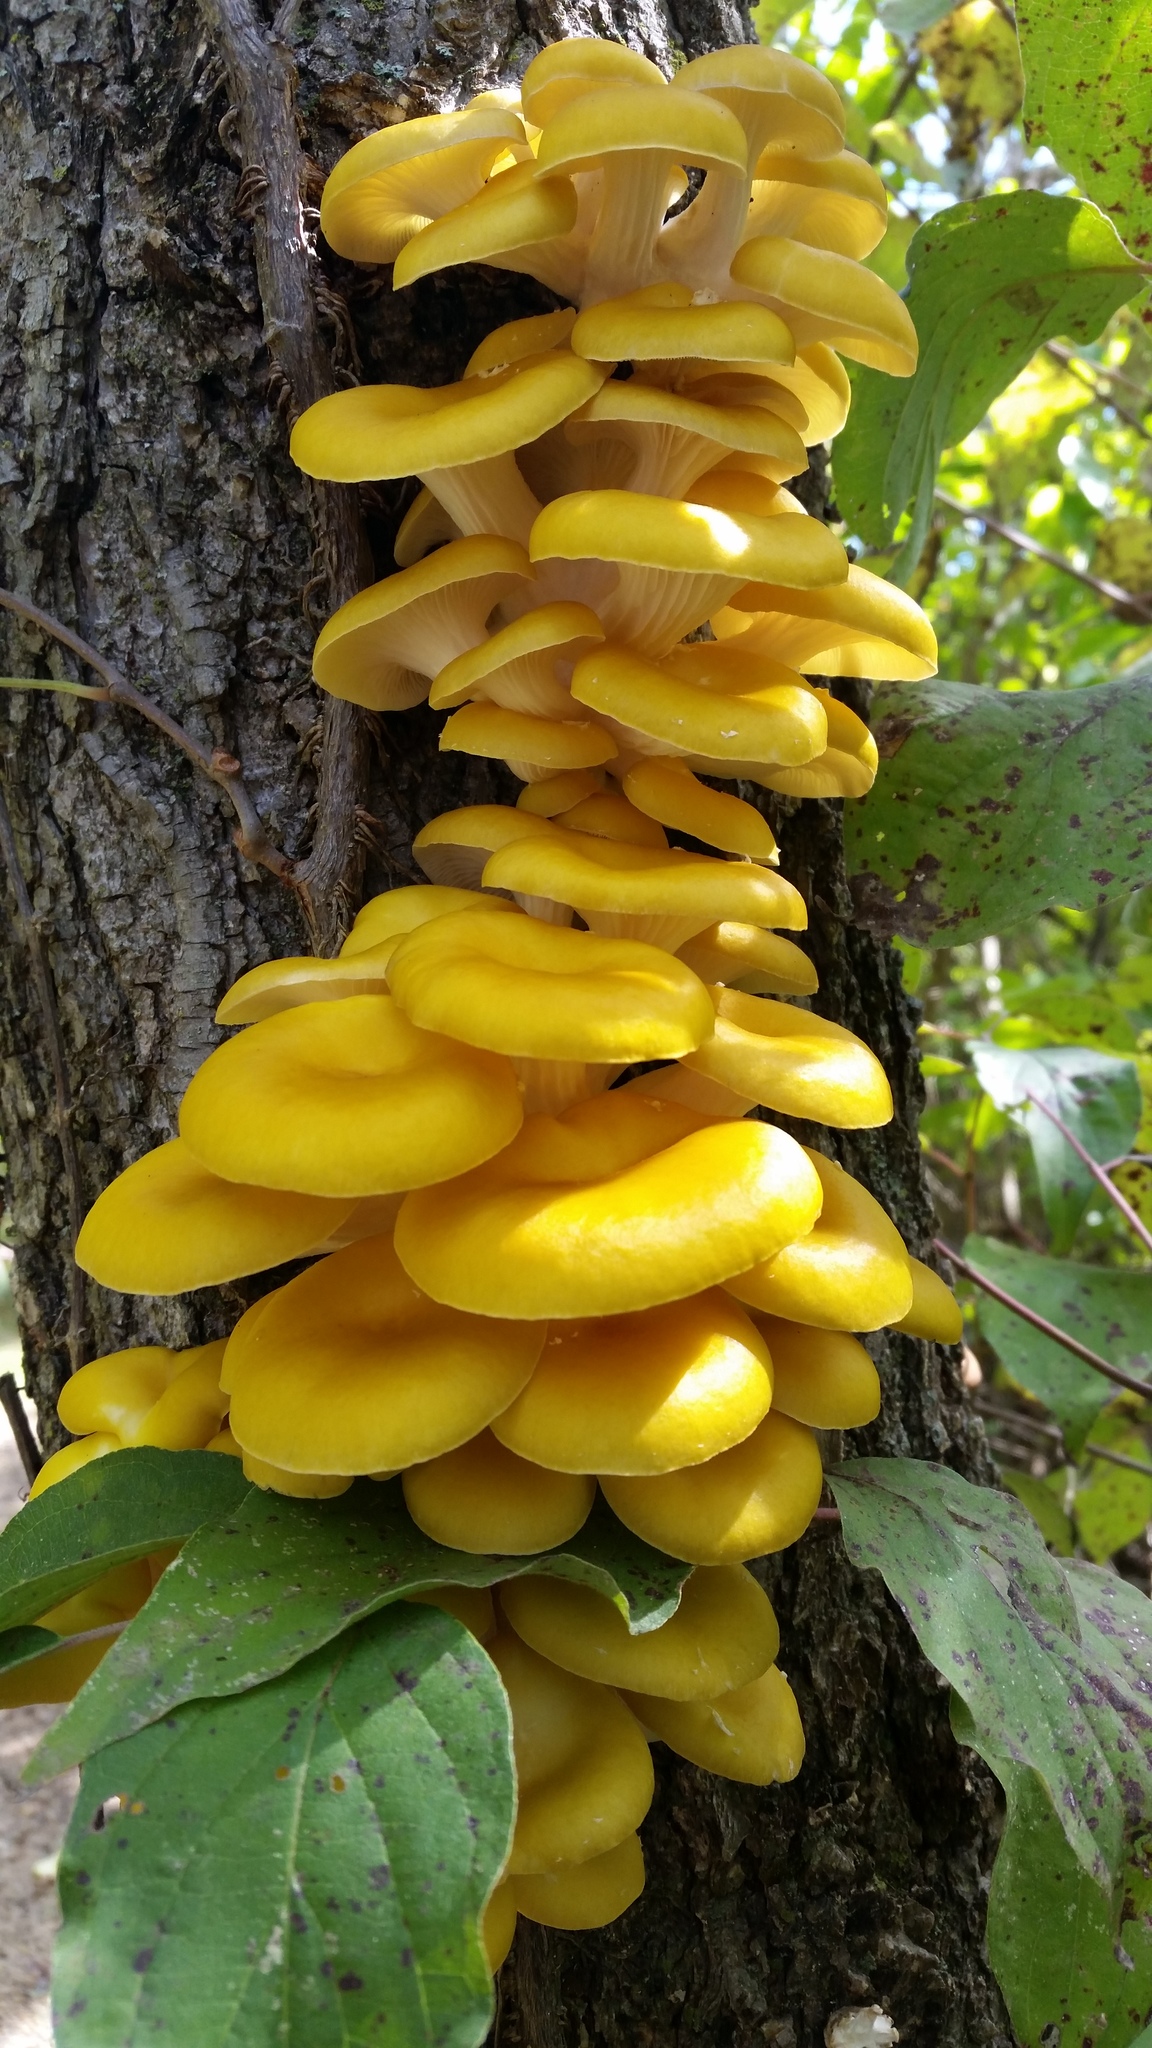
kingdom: Fungi
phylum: Basidiomycota
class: Agaricomycetes
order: Agaricales
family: Pleurotaceae
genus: Pleurotus
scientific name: Pleurotus citrinopileatus
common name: Golden oyster mushroom
